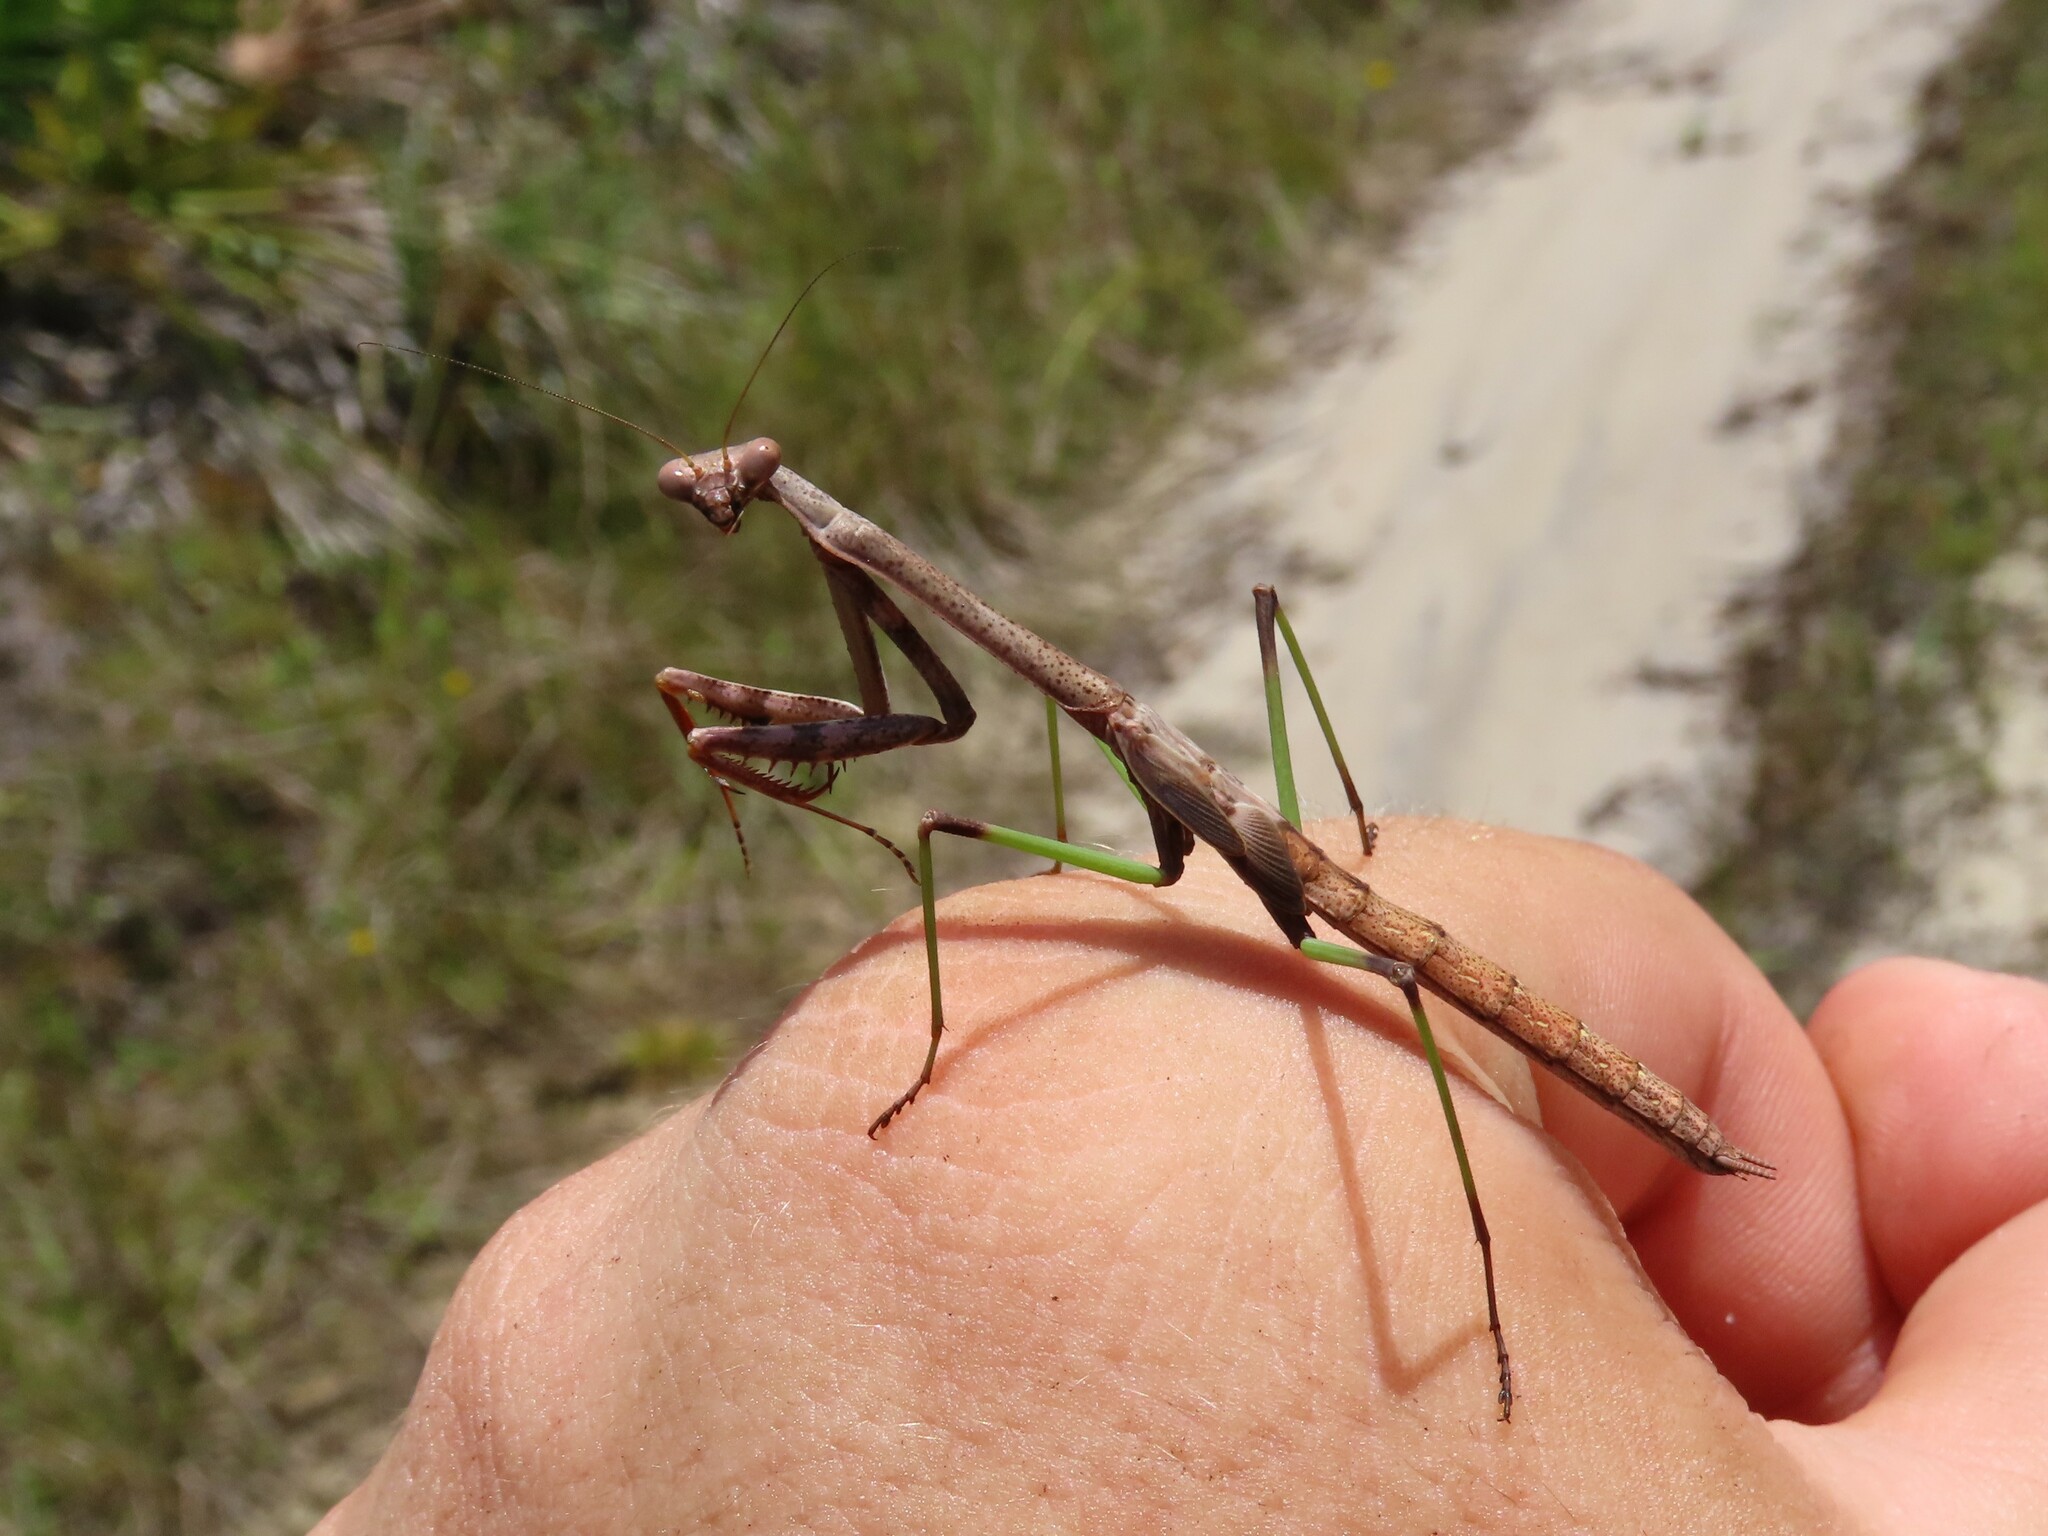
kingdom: Animalia
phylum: Arthropoda
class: Insecta
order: Mantodea
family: Mantidae
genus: Stagmomantis
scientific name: Stagmomantis floridensis
